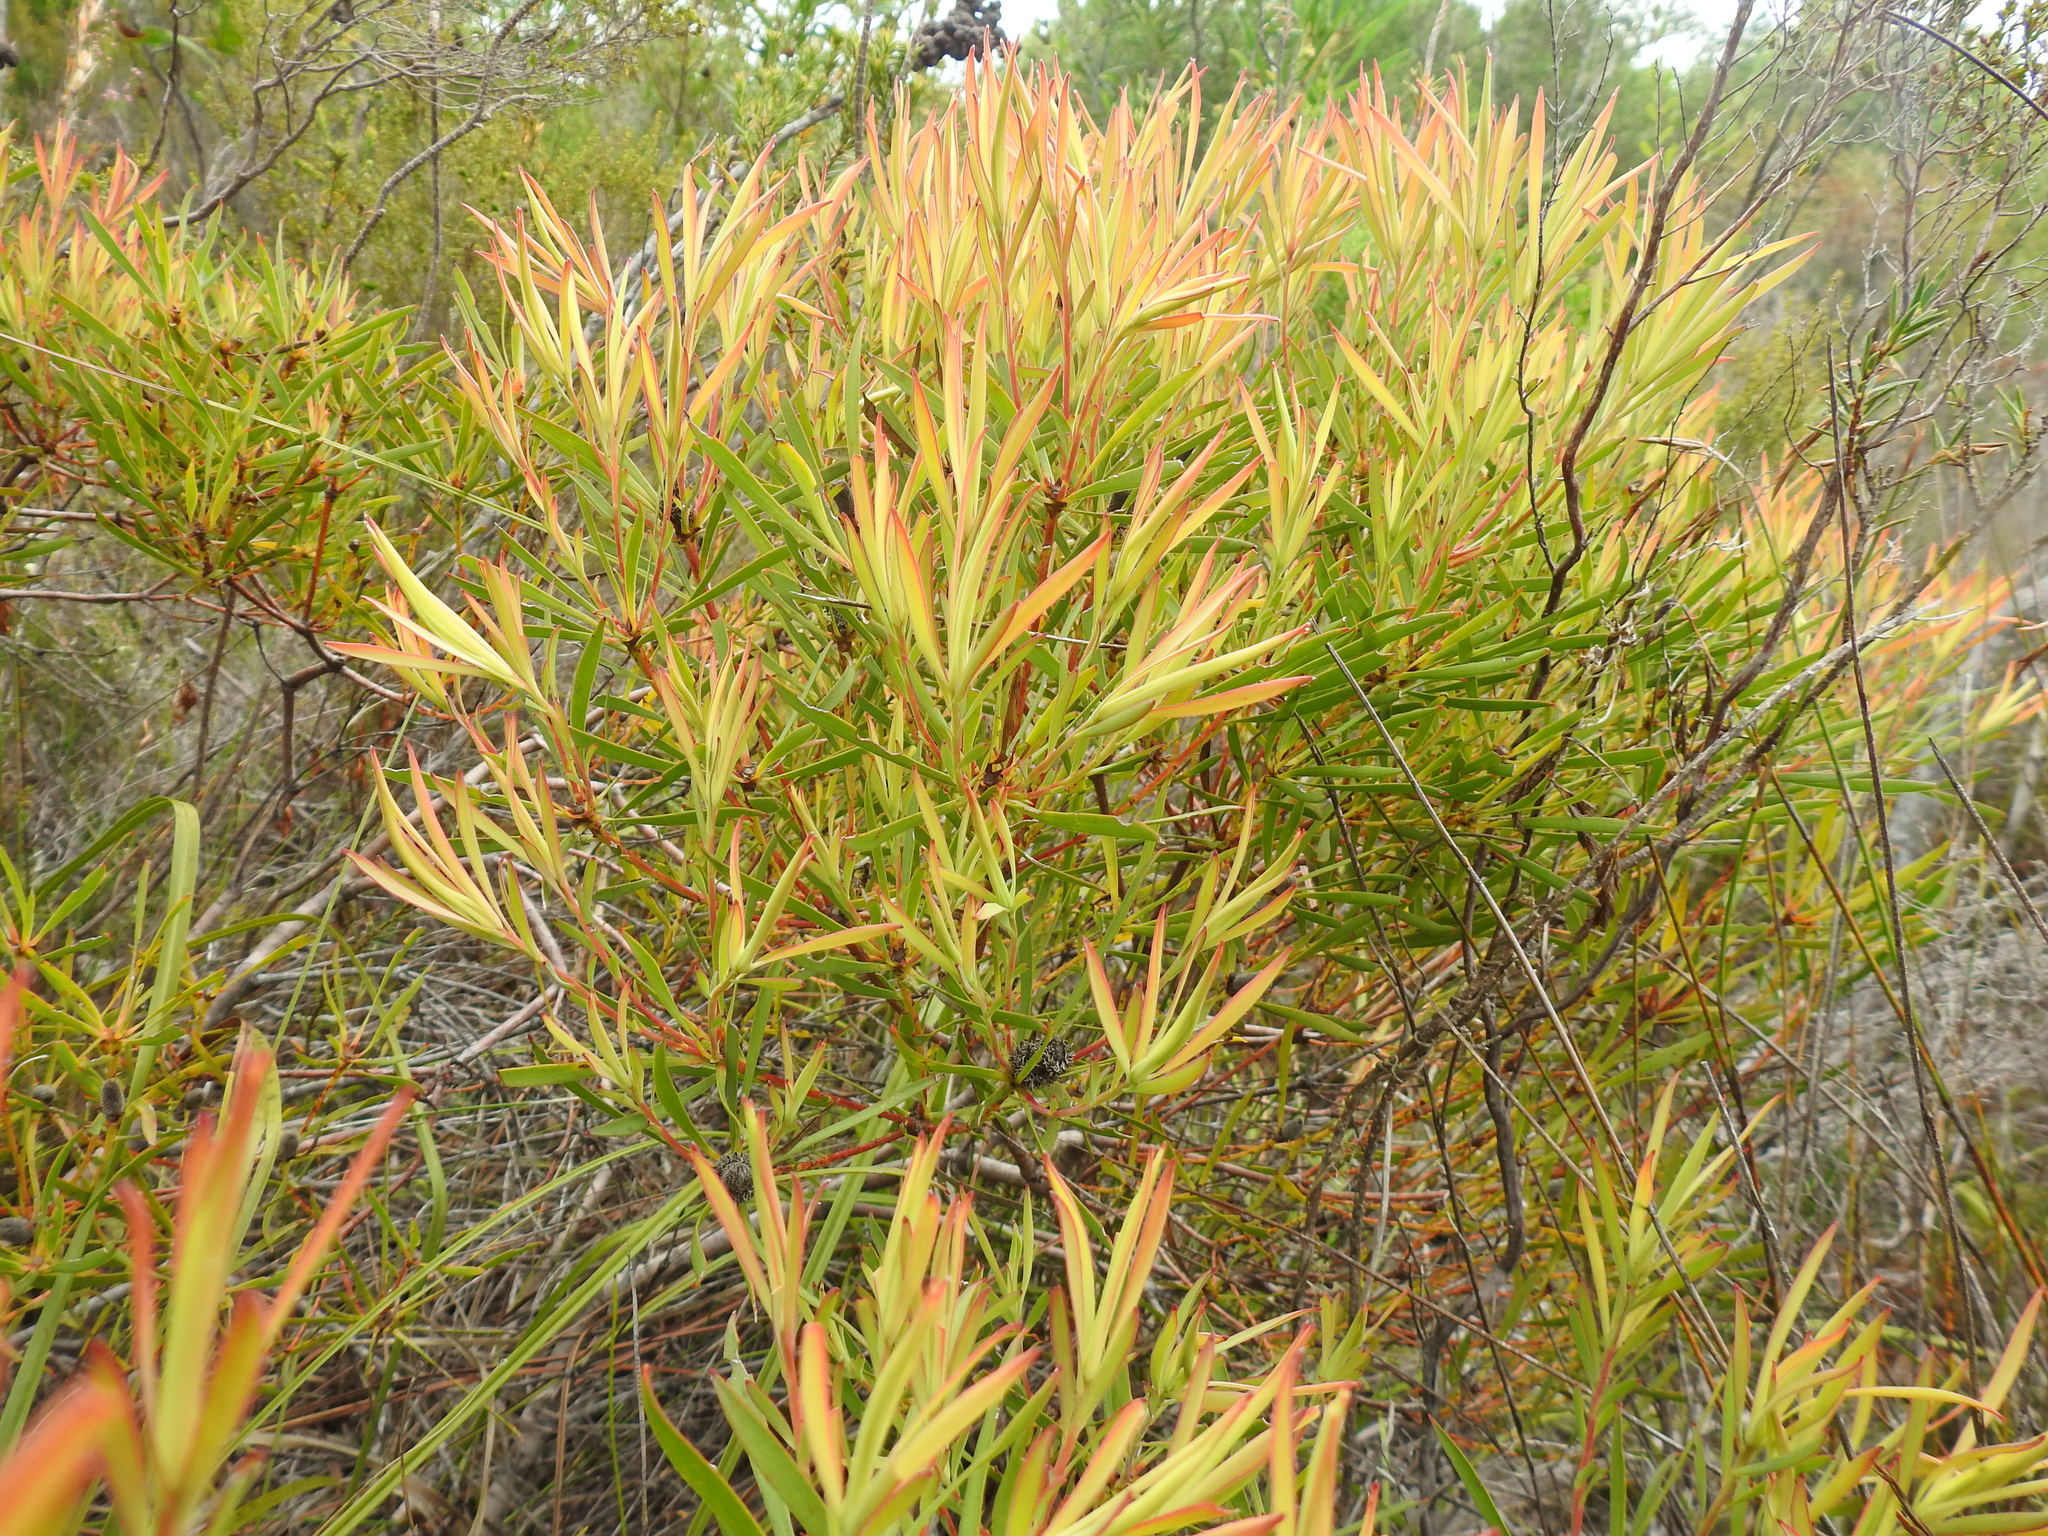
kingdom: Plantae
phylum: Tracheophyta
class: Magnoliopsida
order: Proteales
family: Proteaceae
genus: Leucadendron
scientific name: Leucadendron salignum
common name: Common sunshine conebush
